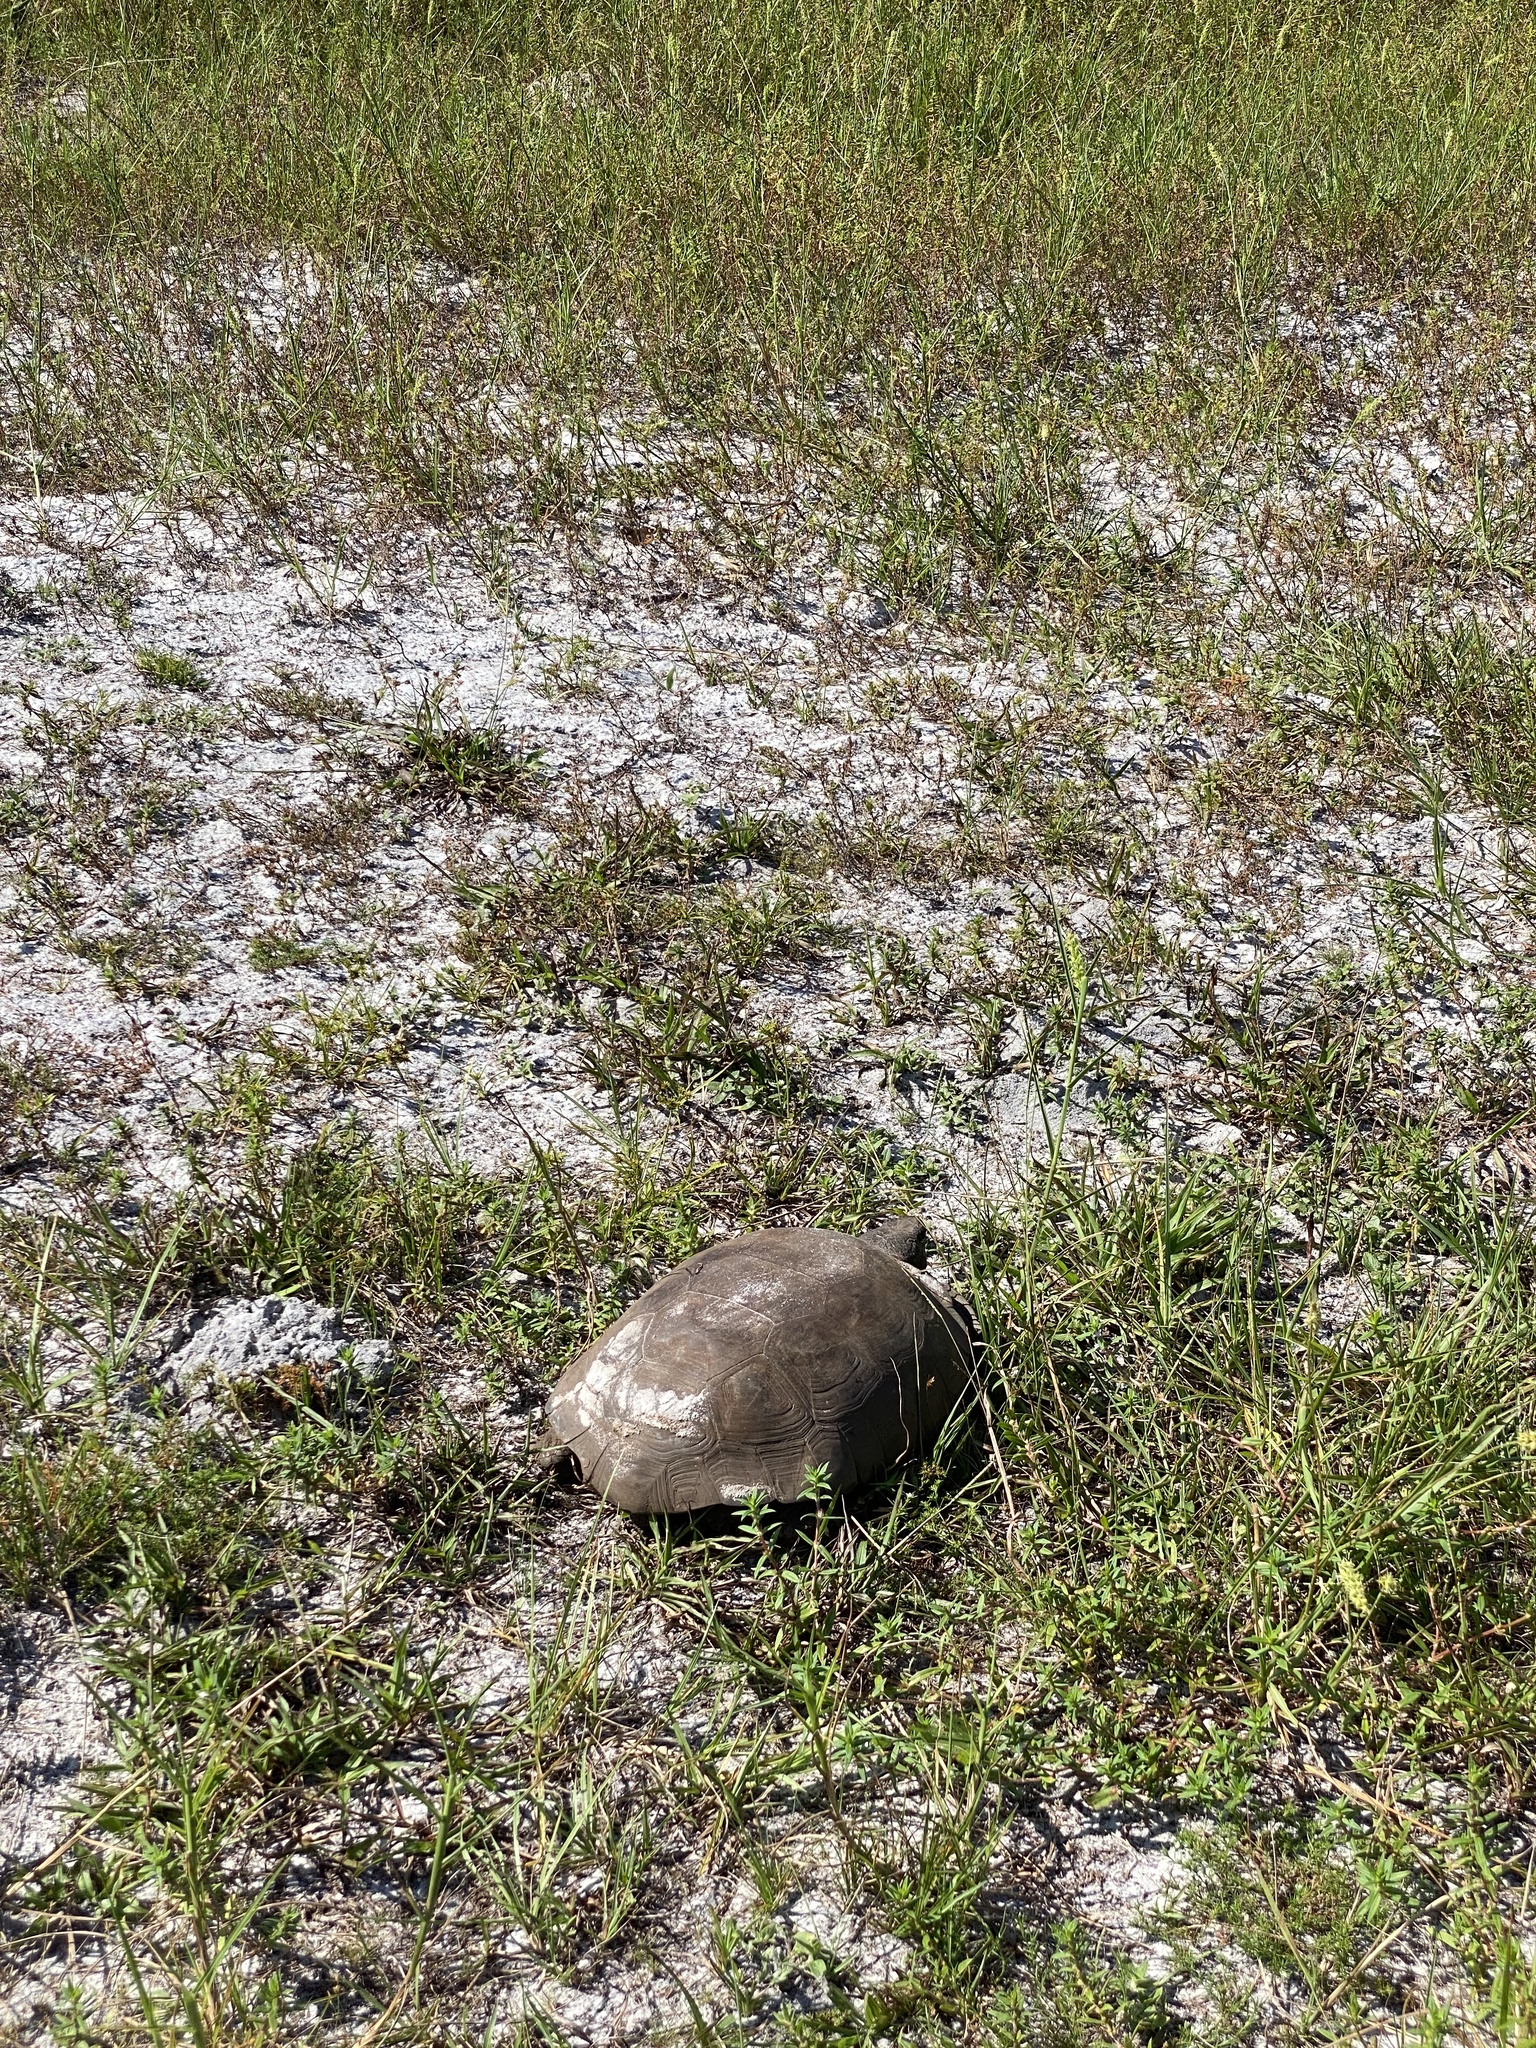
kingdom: Animalia
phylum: Chordata
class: Testudines
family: Testudinidae
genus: Gopherus
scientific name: Gopherus polyphemus
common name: Florida gopher tortoise
